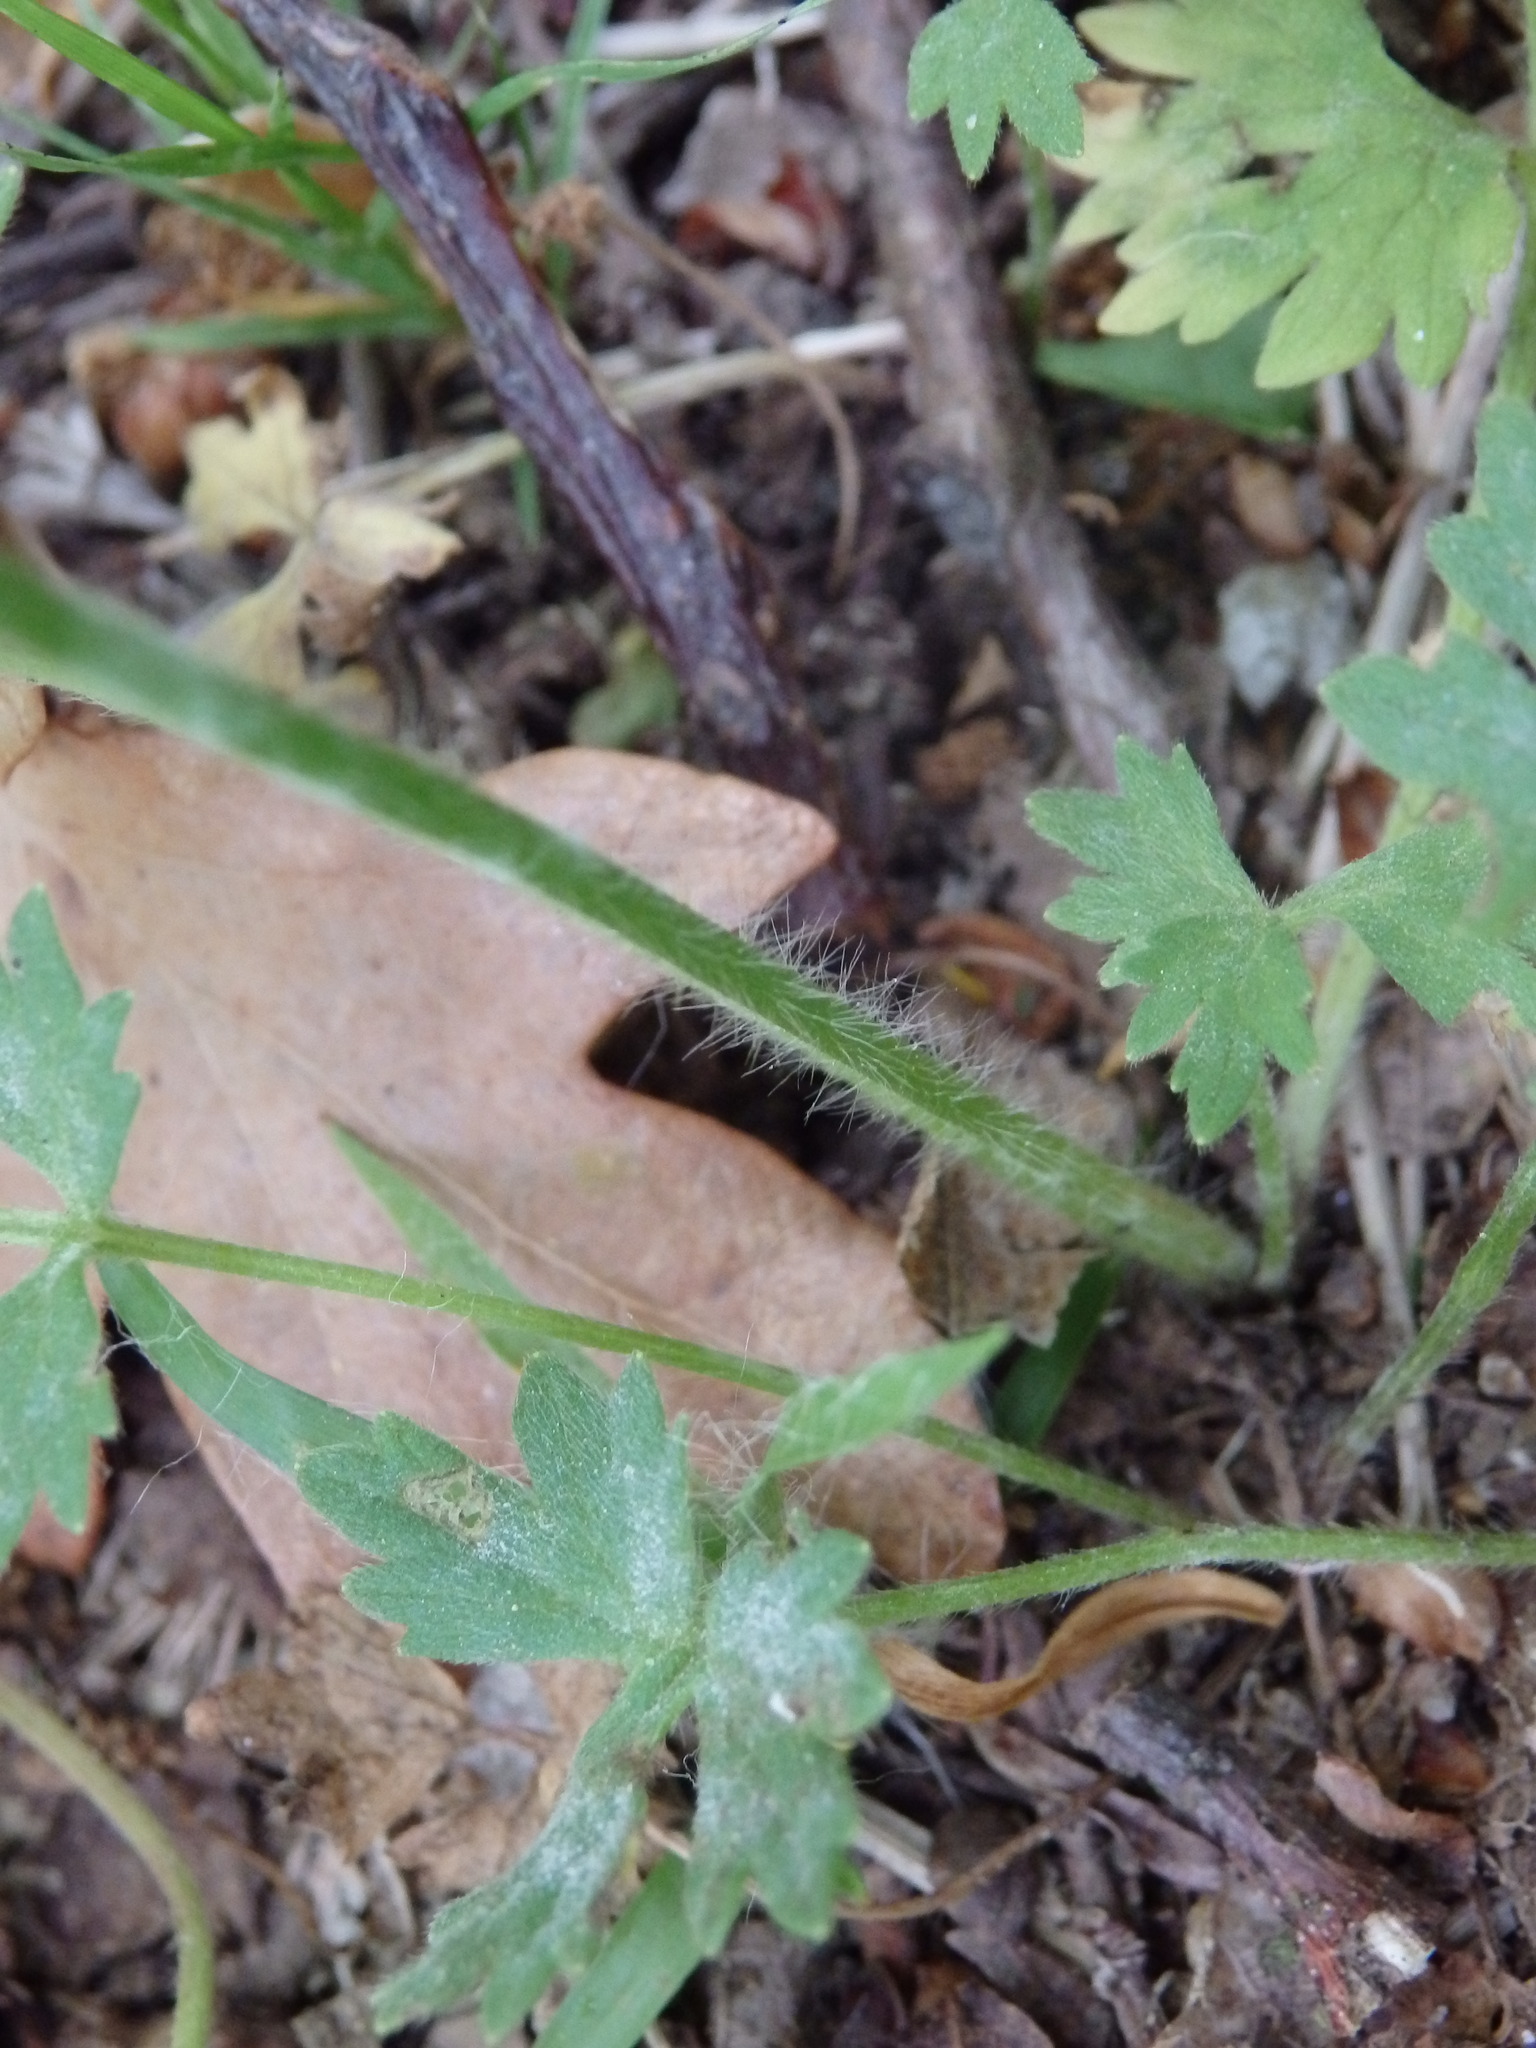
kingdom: Plantae
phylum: Tracheophyta
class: Magnoliopsida
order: Ranunculales
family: Ranunculaceae
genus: Ranunculus
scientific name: Ranunculus ollissiponensis
